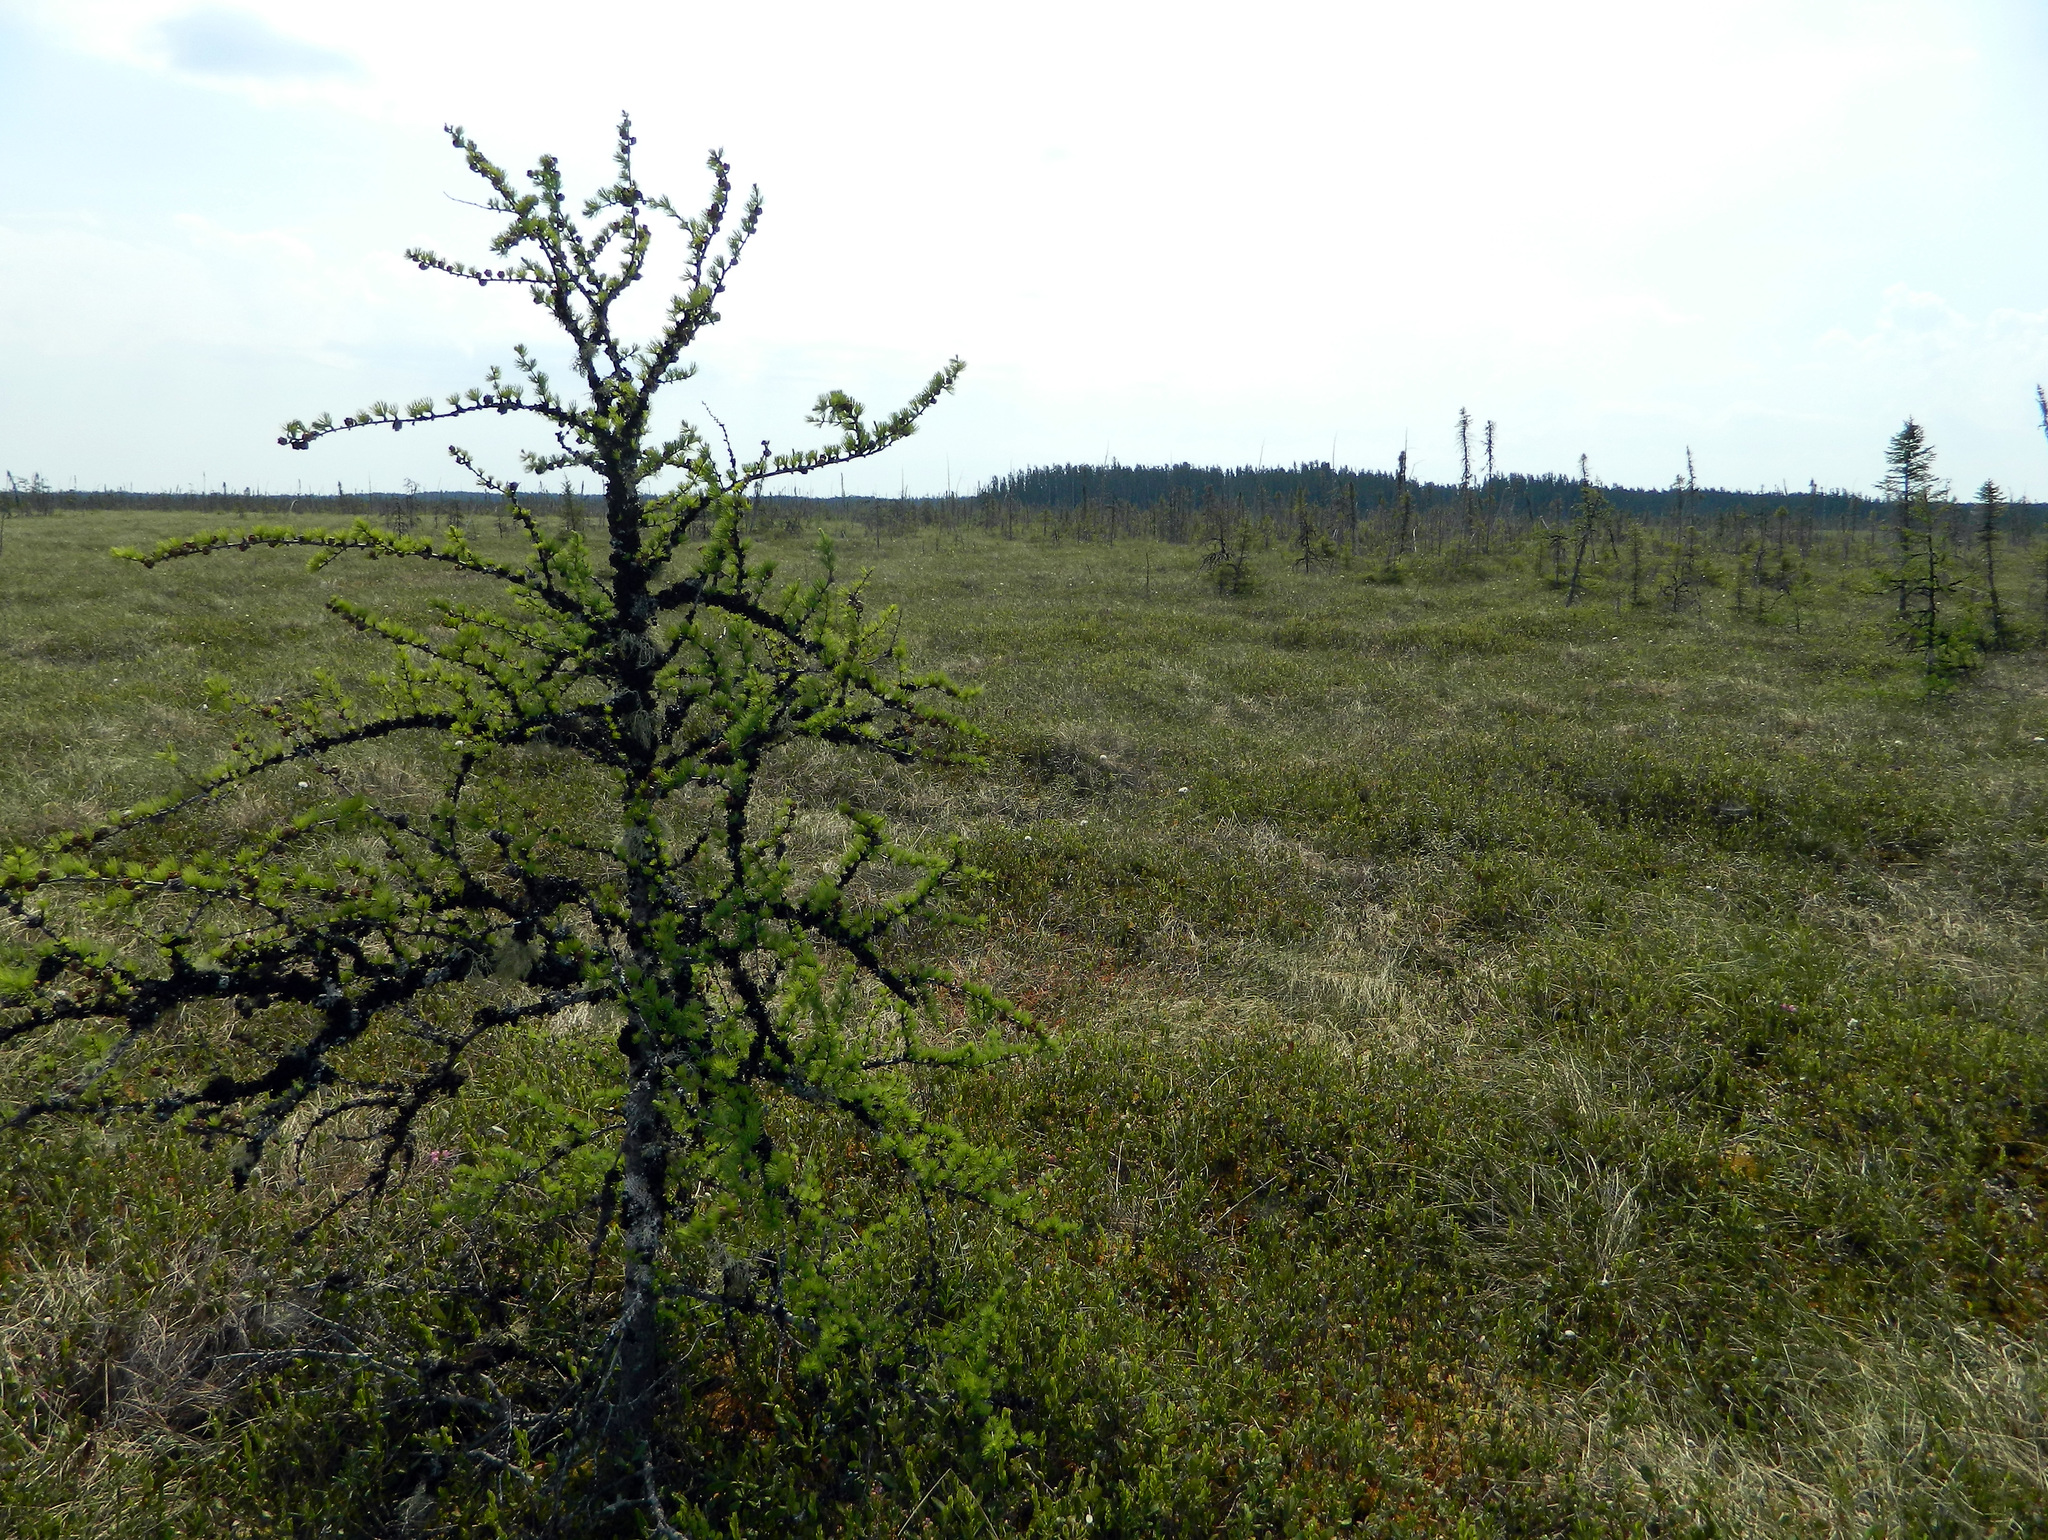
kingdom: Plantae
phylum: Tracheophyta
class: Pinopsida
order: Pinales
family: Pinaceae
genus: Larix
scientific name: Larix laricina
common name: American larch
